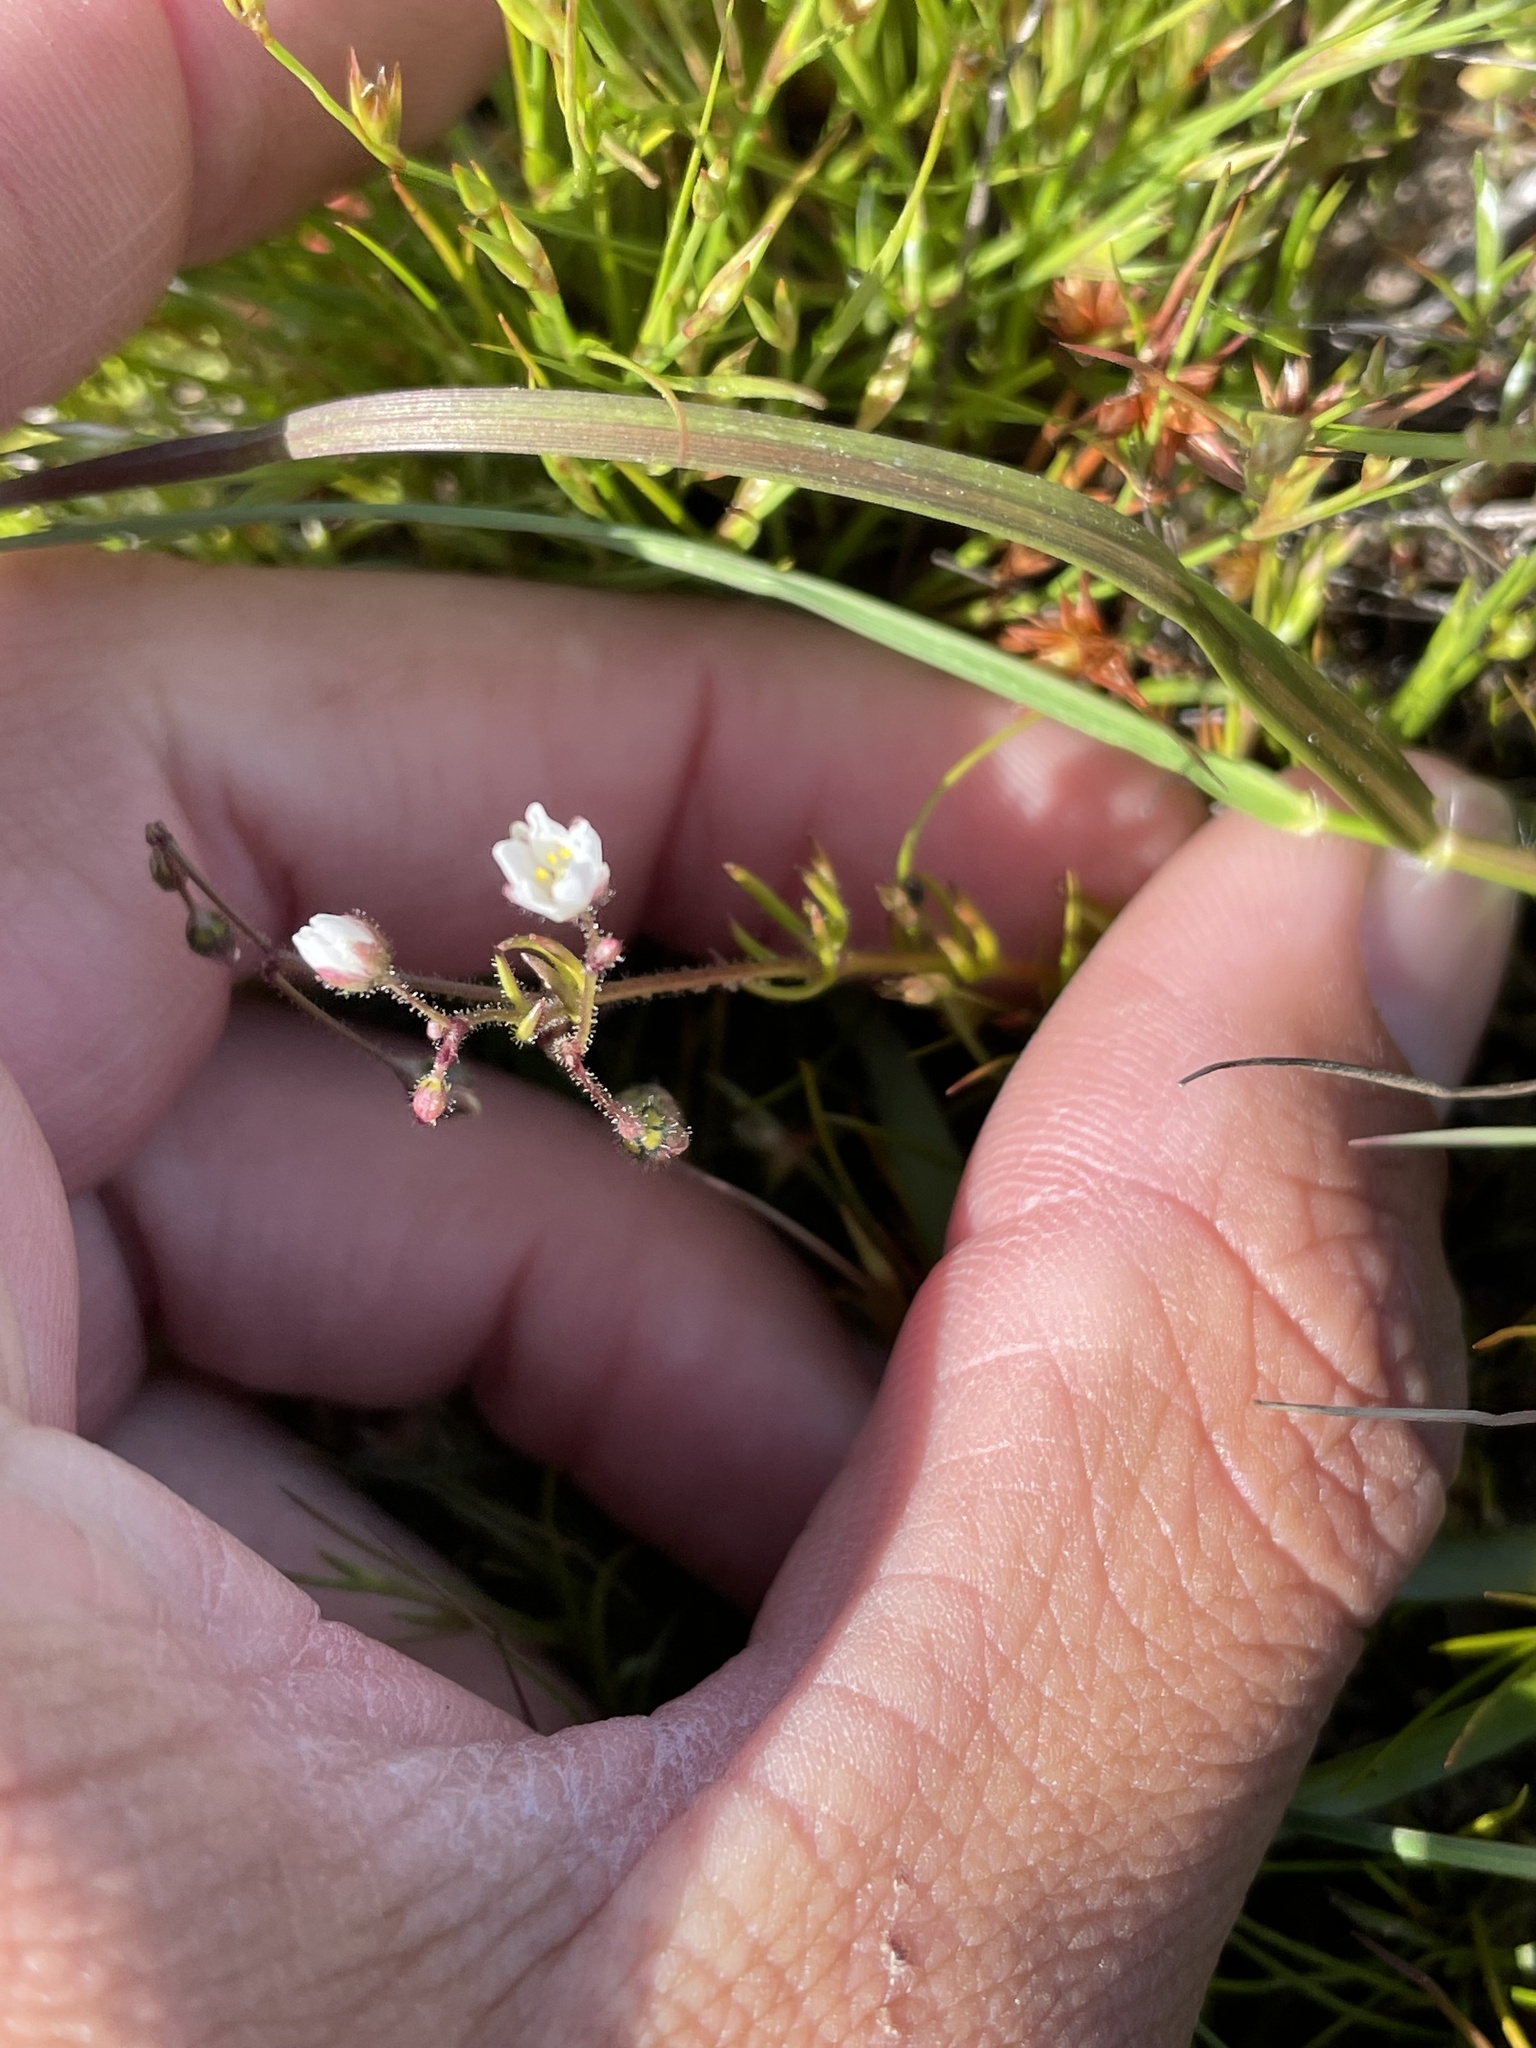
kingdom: Plantae
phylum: Tracheophyta
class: Magnoliopsida
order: Caryophyllales
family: Caryophyllaceae
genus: Spergula
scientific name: Spergula arvensis
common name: Corn spurrey
